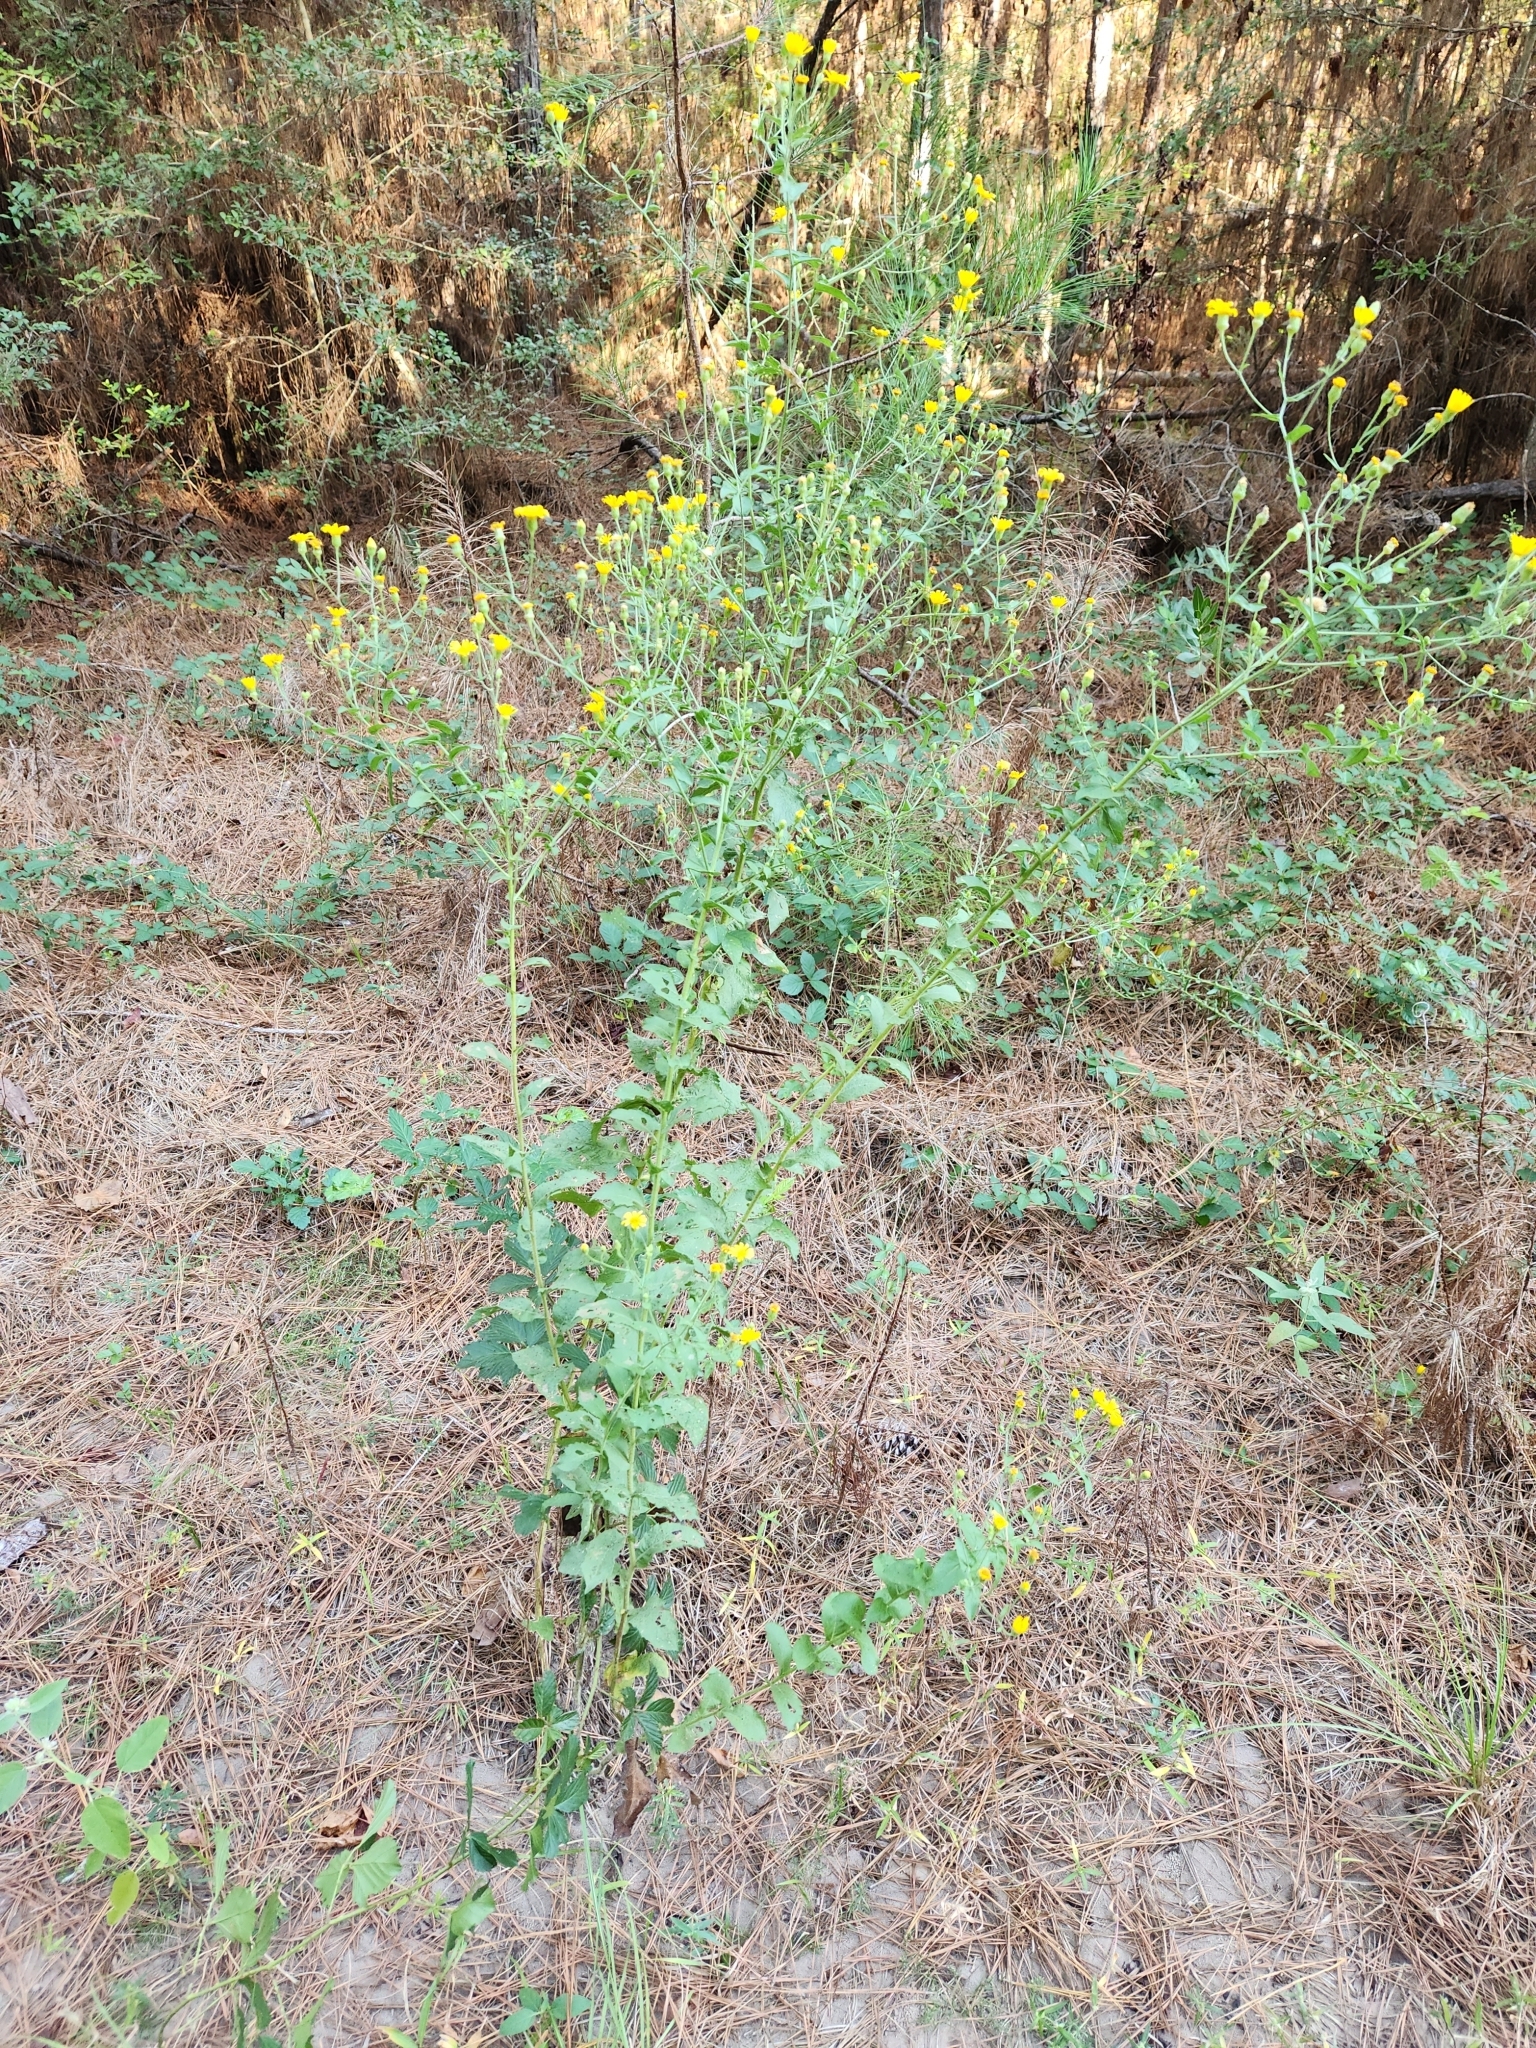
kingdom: Plantae
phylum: Tracheophyta
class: Magnoliopsida
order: Asterales
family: Asteraceae
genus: Heterotheca
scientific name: Heterotheca subaxillaris
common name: Camphorweed
